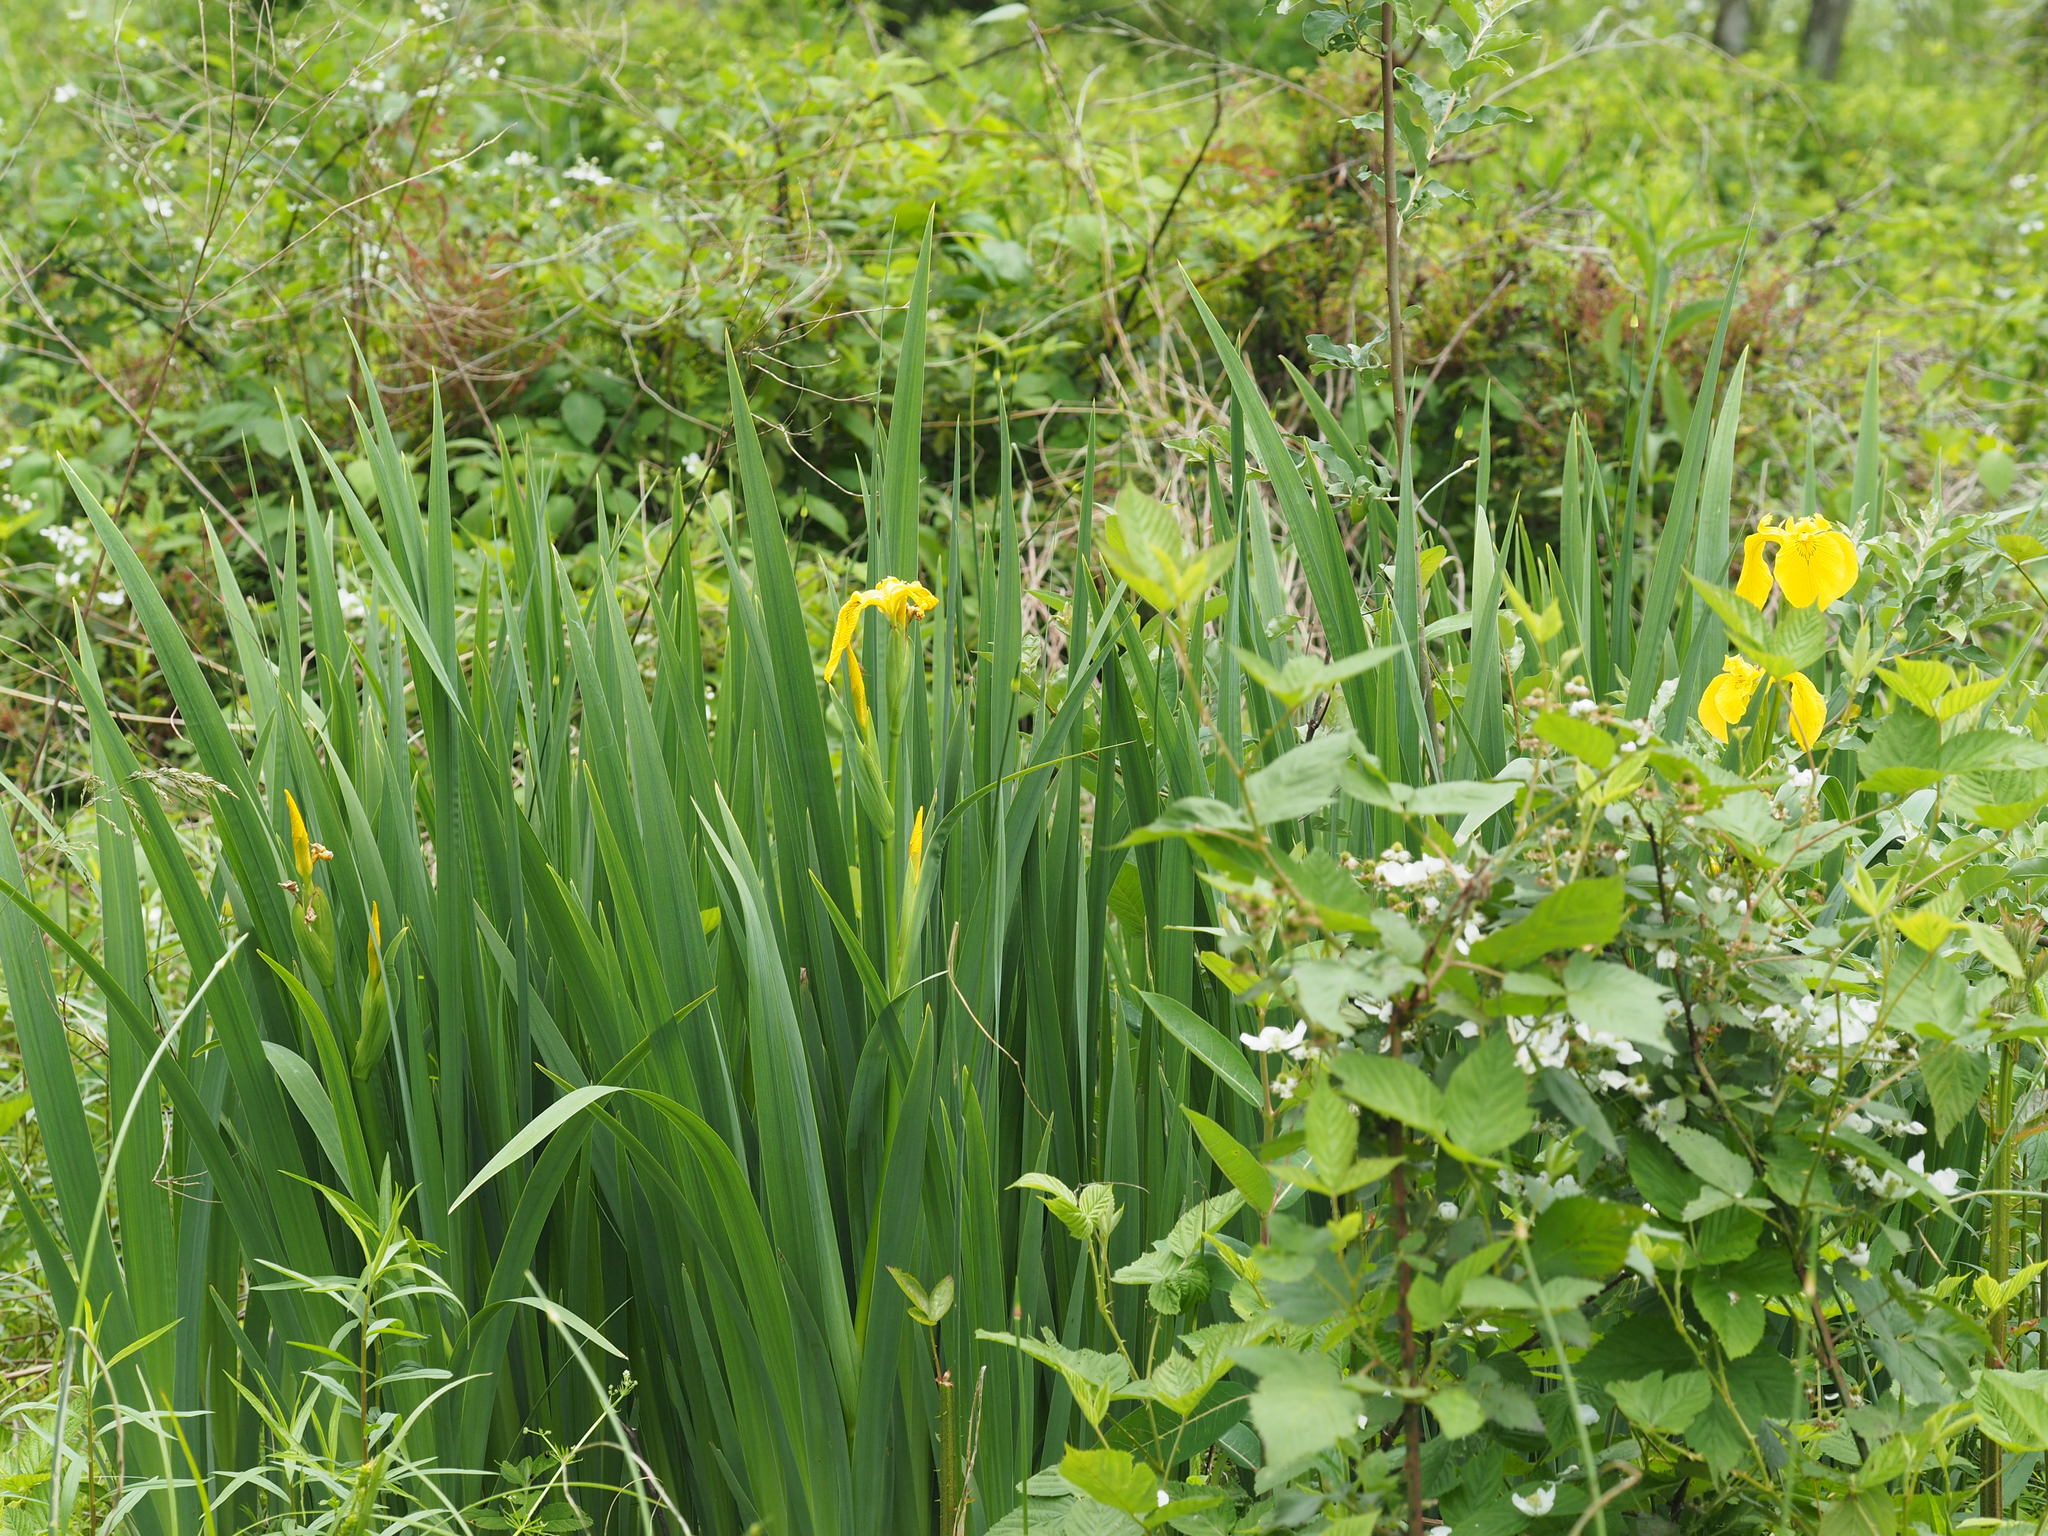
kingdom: Plantae
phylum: Tracheophyta
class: Liliopsida
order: Asparagales
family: Iridaceae
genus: Iris
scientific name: Iris pseudacorus
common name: Yellow flag
